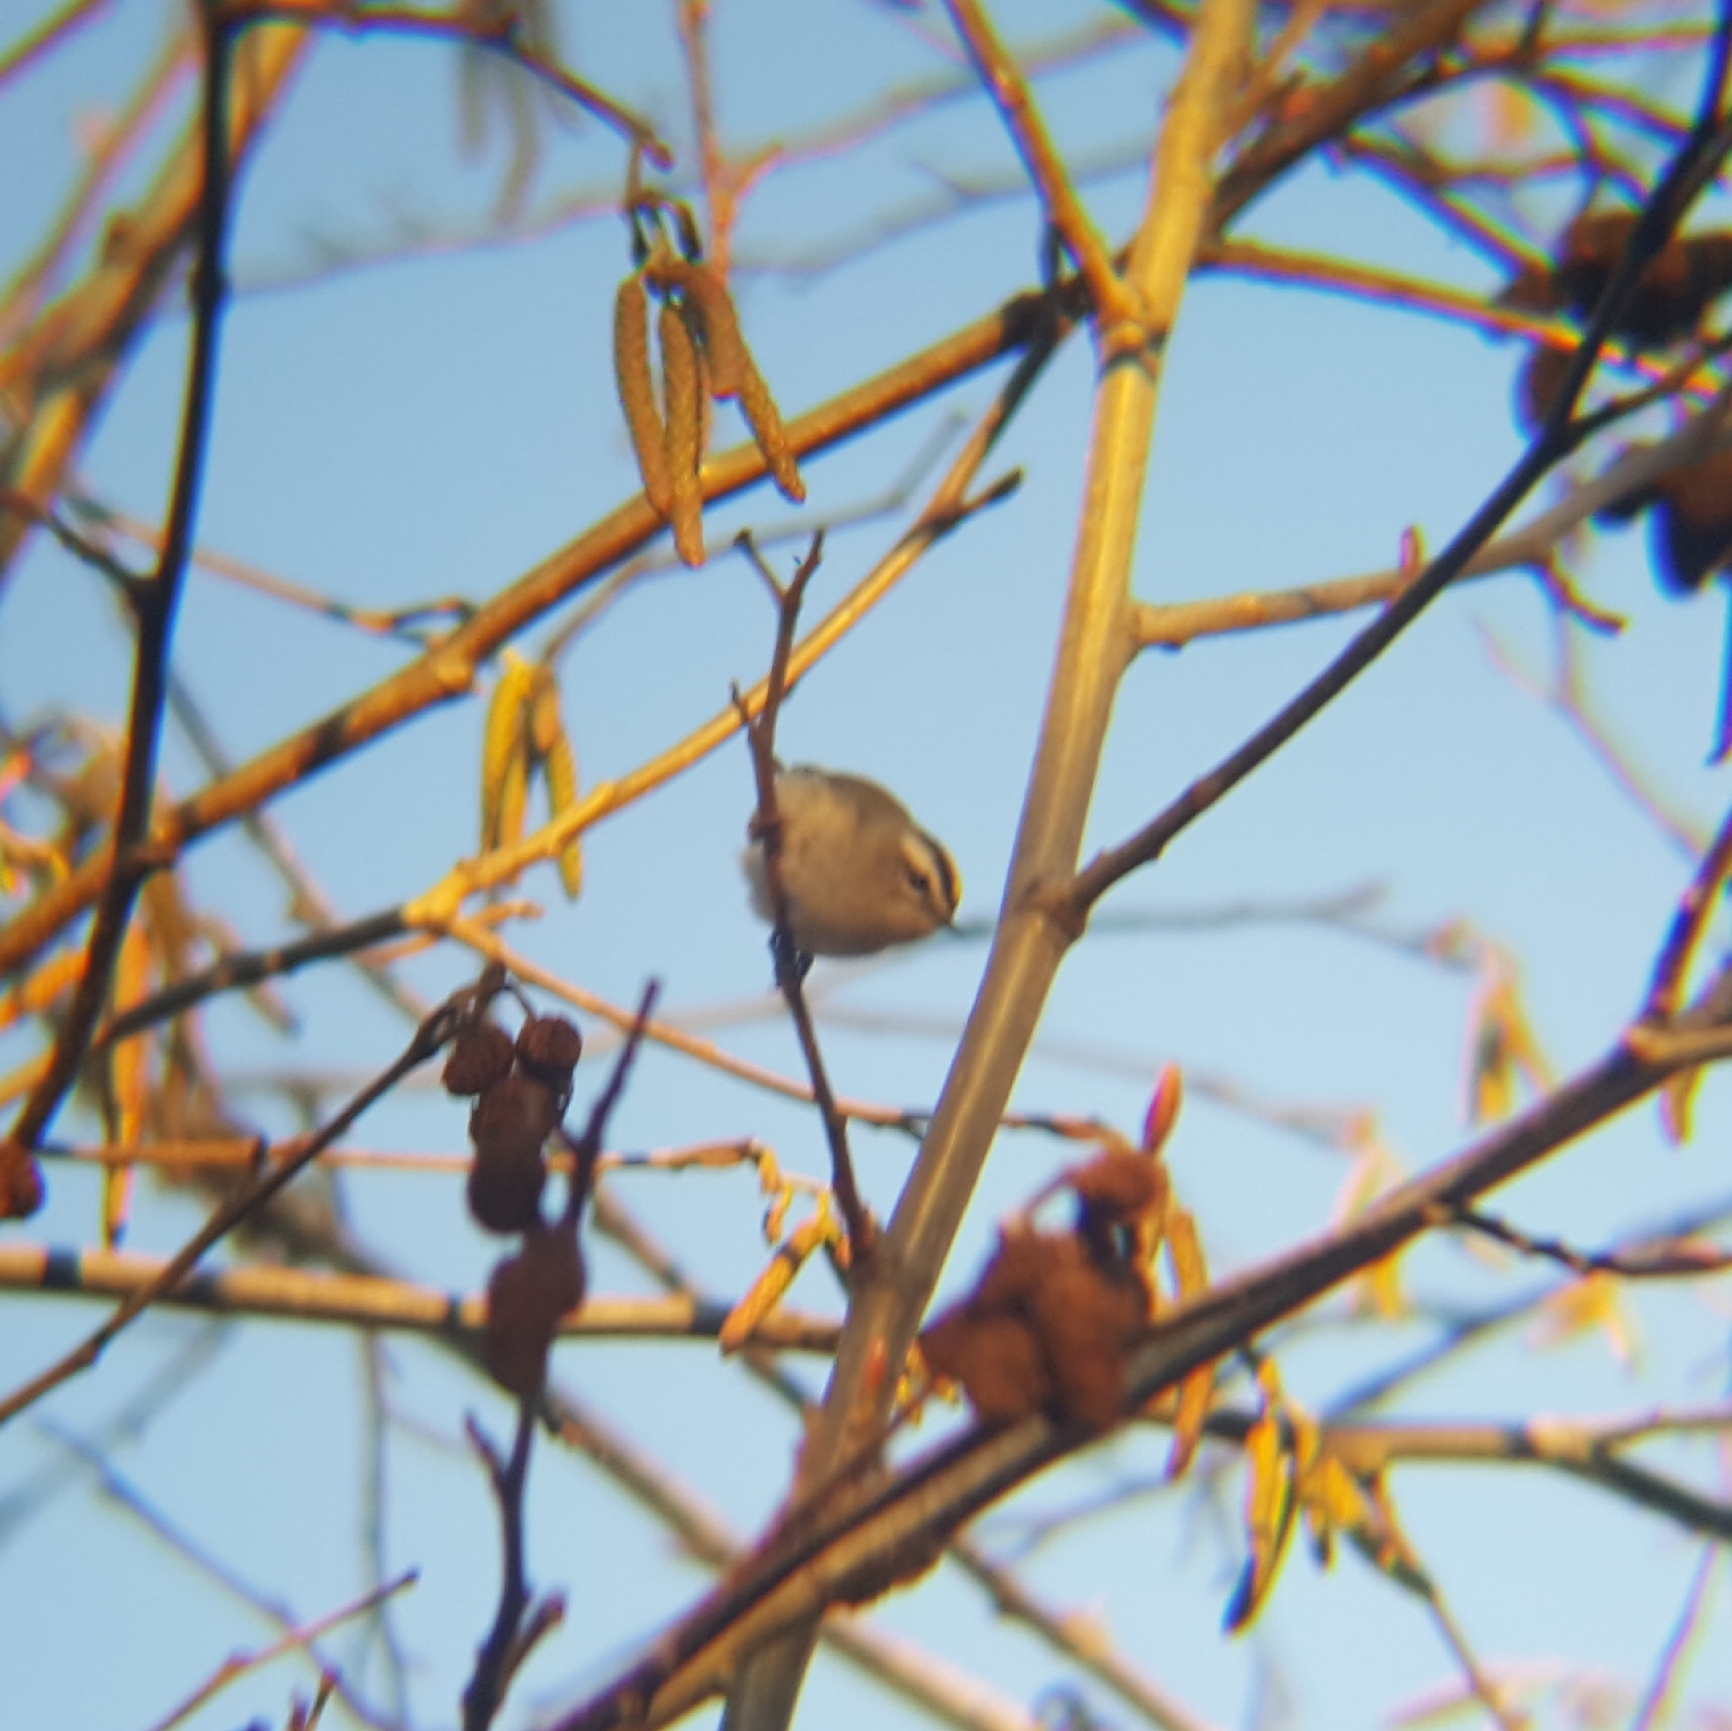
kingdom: Animalia
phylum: Chordata
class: Aves
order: Passeriformes
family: Regulidae
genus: Regulus
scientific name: Regulus satrapa
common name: Golden-crowned kinglet
